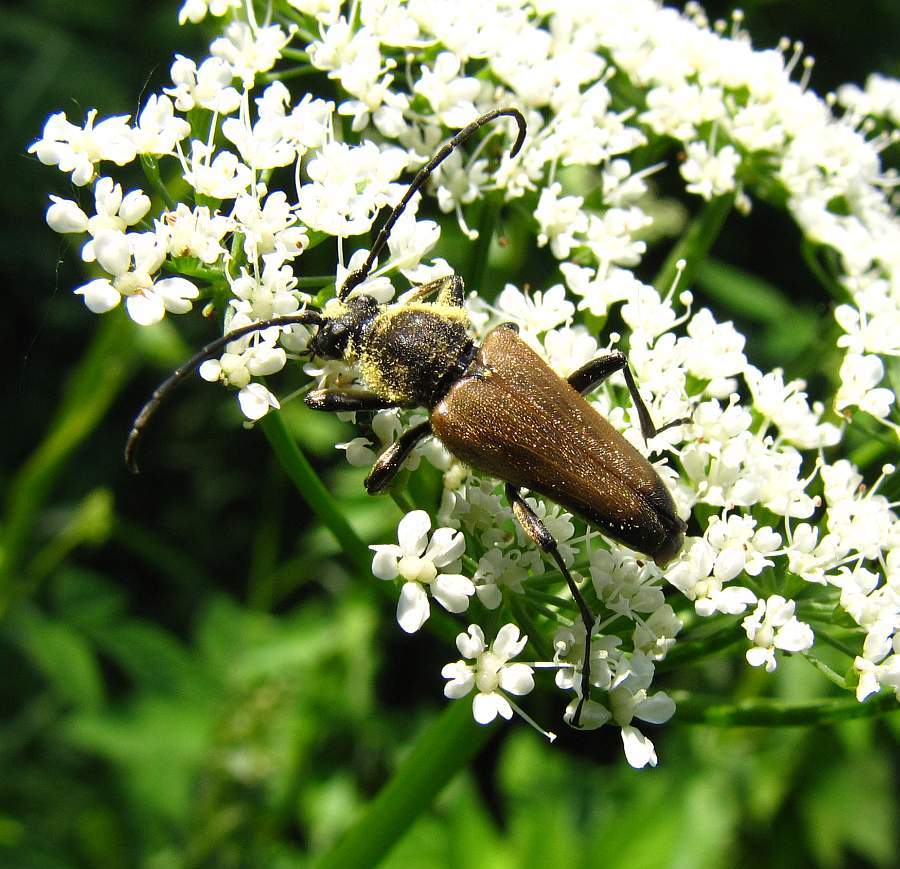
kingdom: Animalia
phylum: Arthropoda
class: Insecta
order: Coleoptera
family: Cerambycidae
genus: Trigonarthris
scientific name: Trigonarthris proxima
